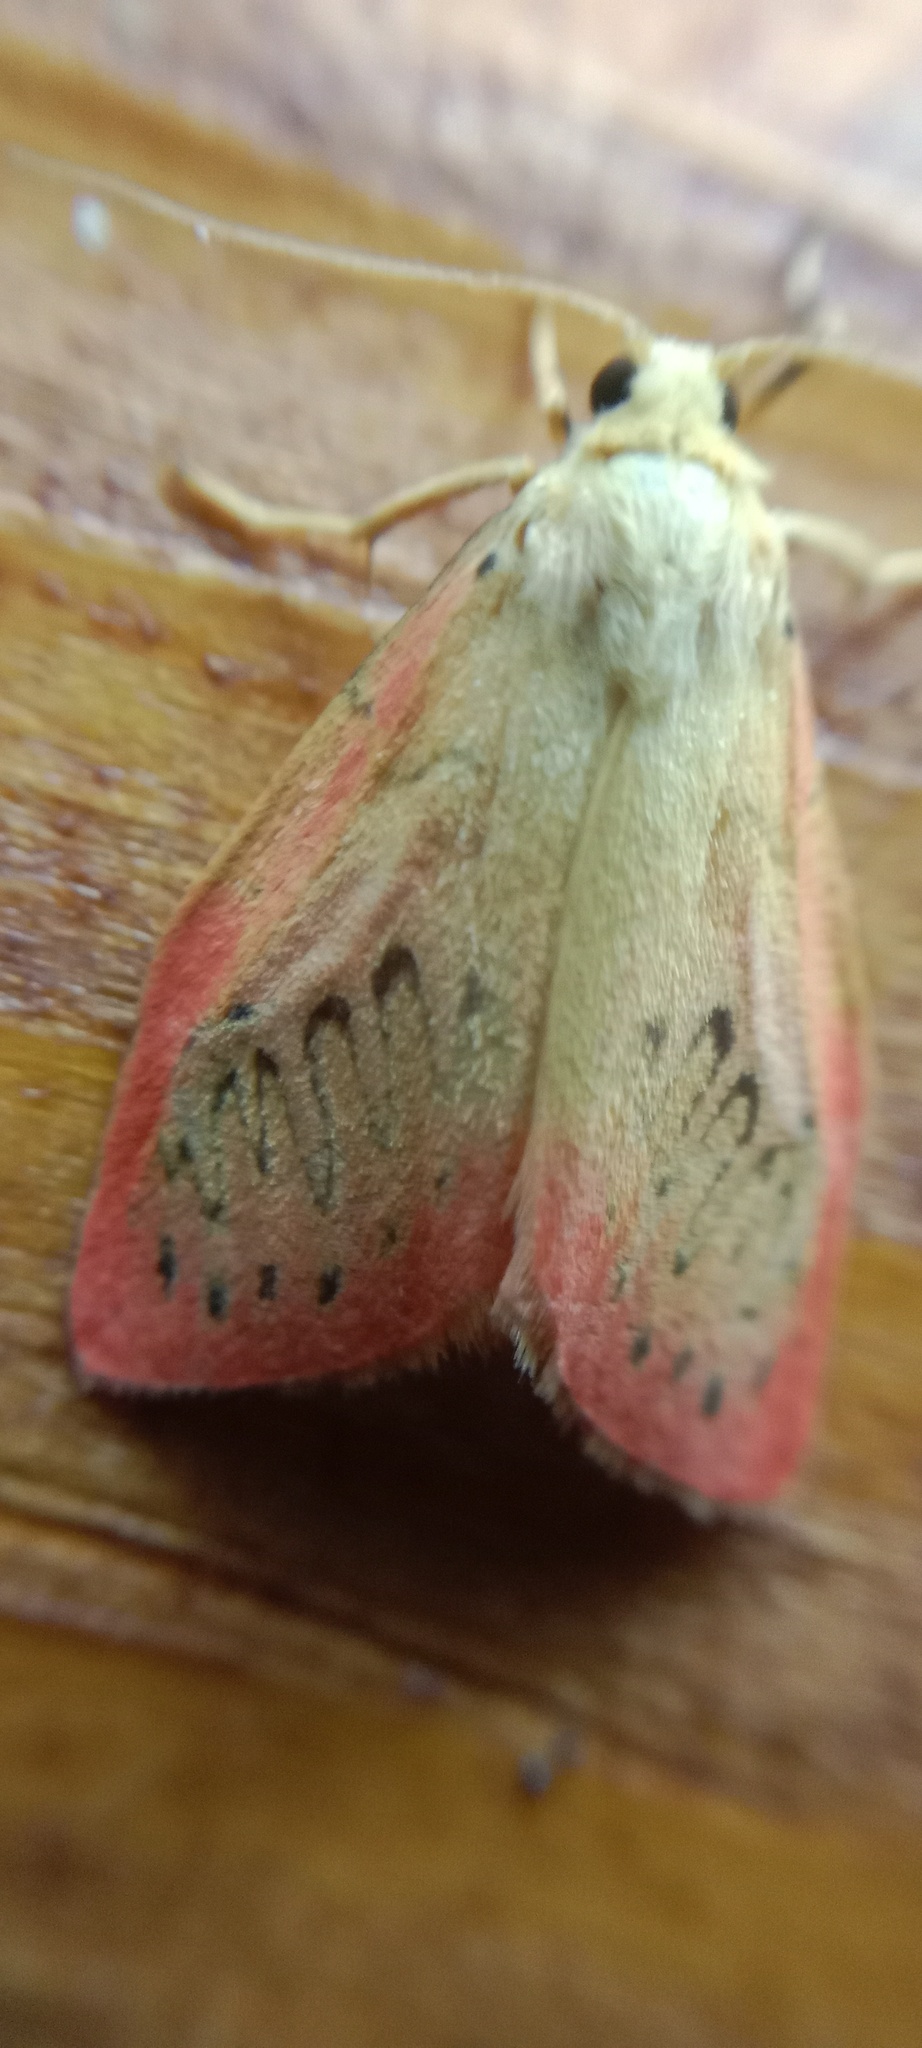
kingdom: Animalia
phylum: Arthropoda
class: Insecta
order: Lepidoptera
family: Erebidae
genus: Miltochrista
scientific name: Miltochrista miniata
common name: Rosy footman
